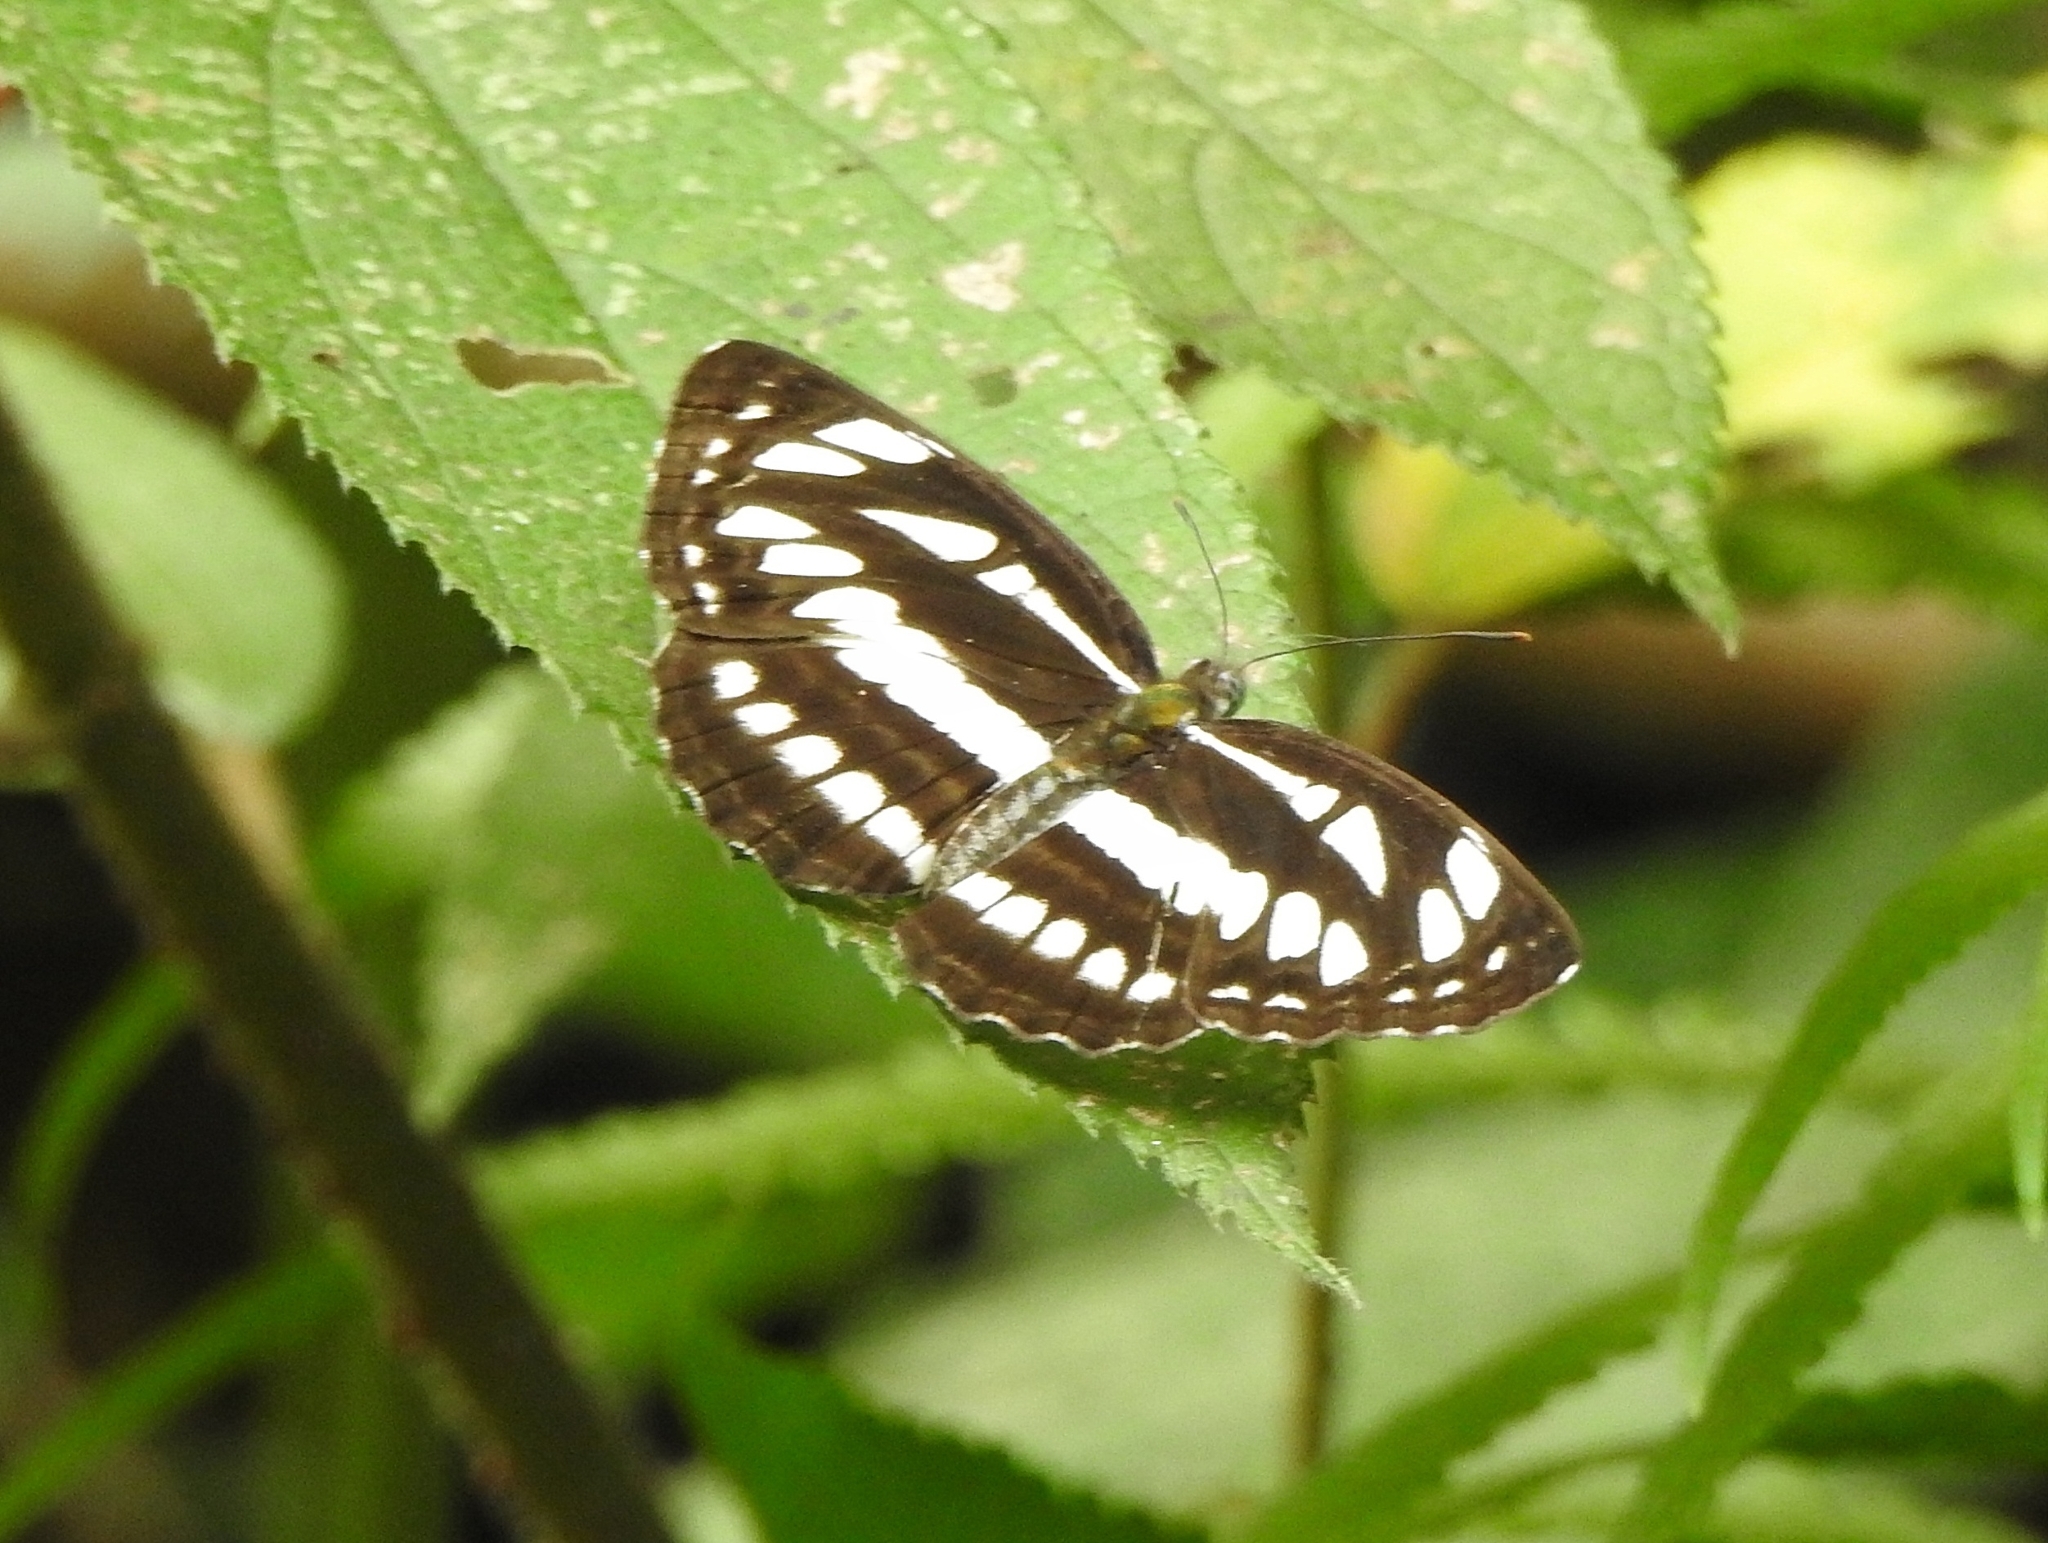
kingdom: Animalia
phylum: Arthropoda
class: Insecta
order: Lepidoptera
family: Nymphalidae
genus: Neptis
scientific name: Neptis hylas
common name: Common sailer
